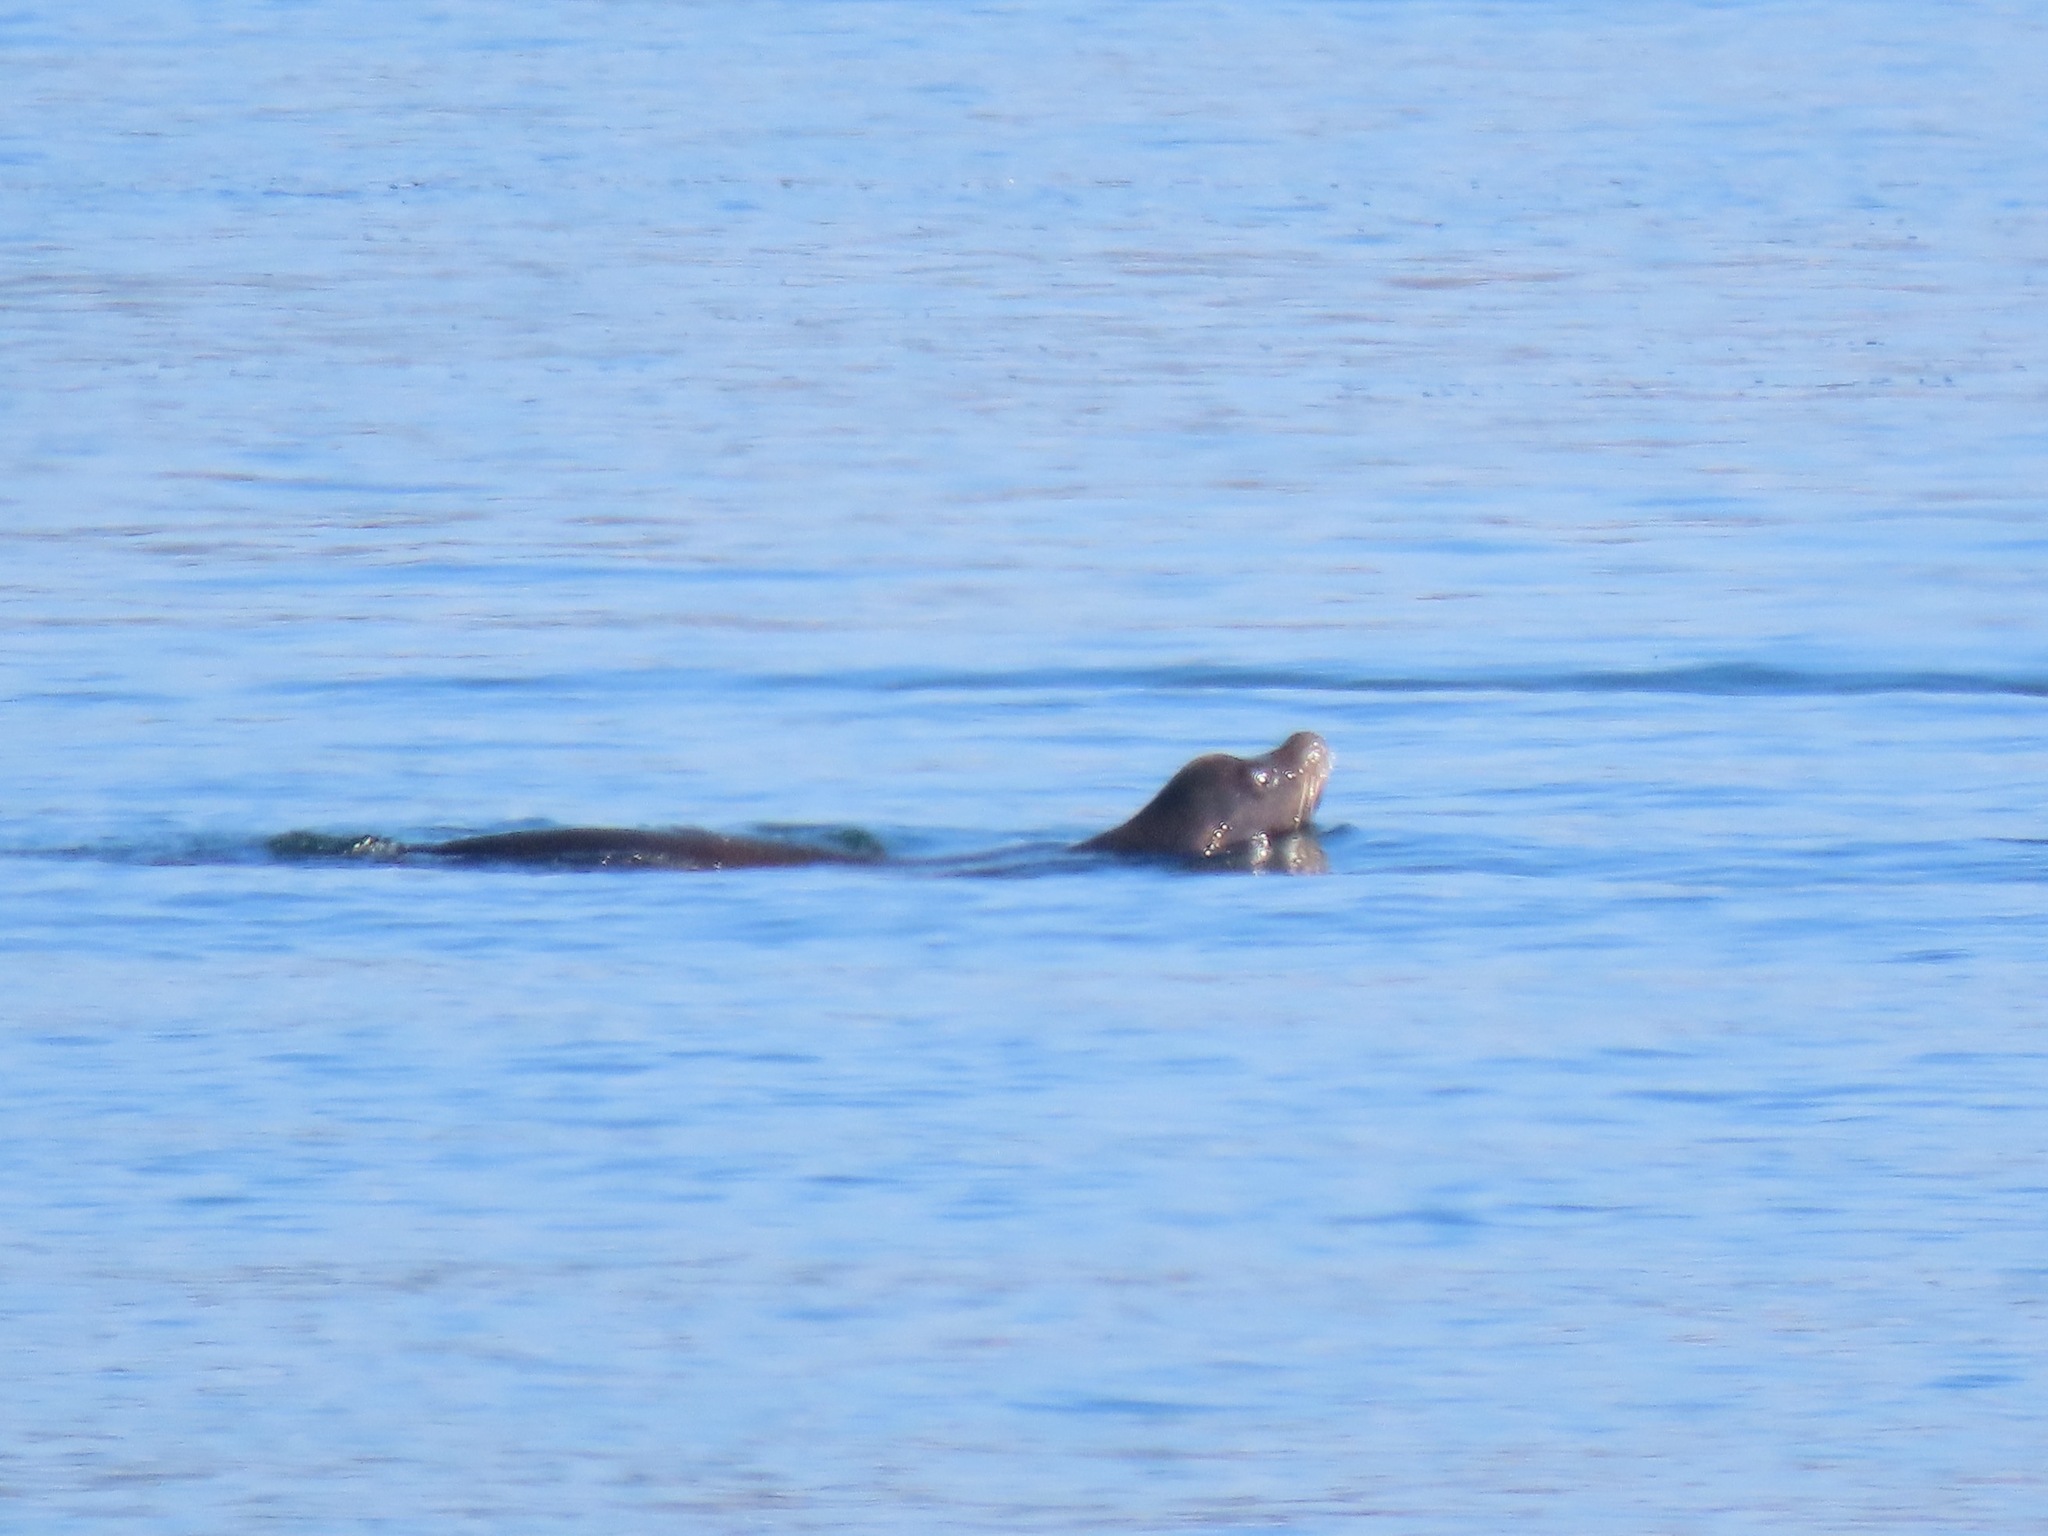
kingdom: Animalia
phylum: Chordata
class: Mammalia
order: Carnivora
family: Otariidae
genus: Zalophus
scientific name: Zalophus californianus
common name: California sea lion
